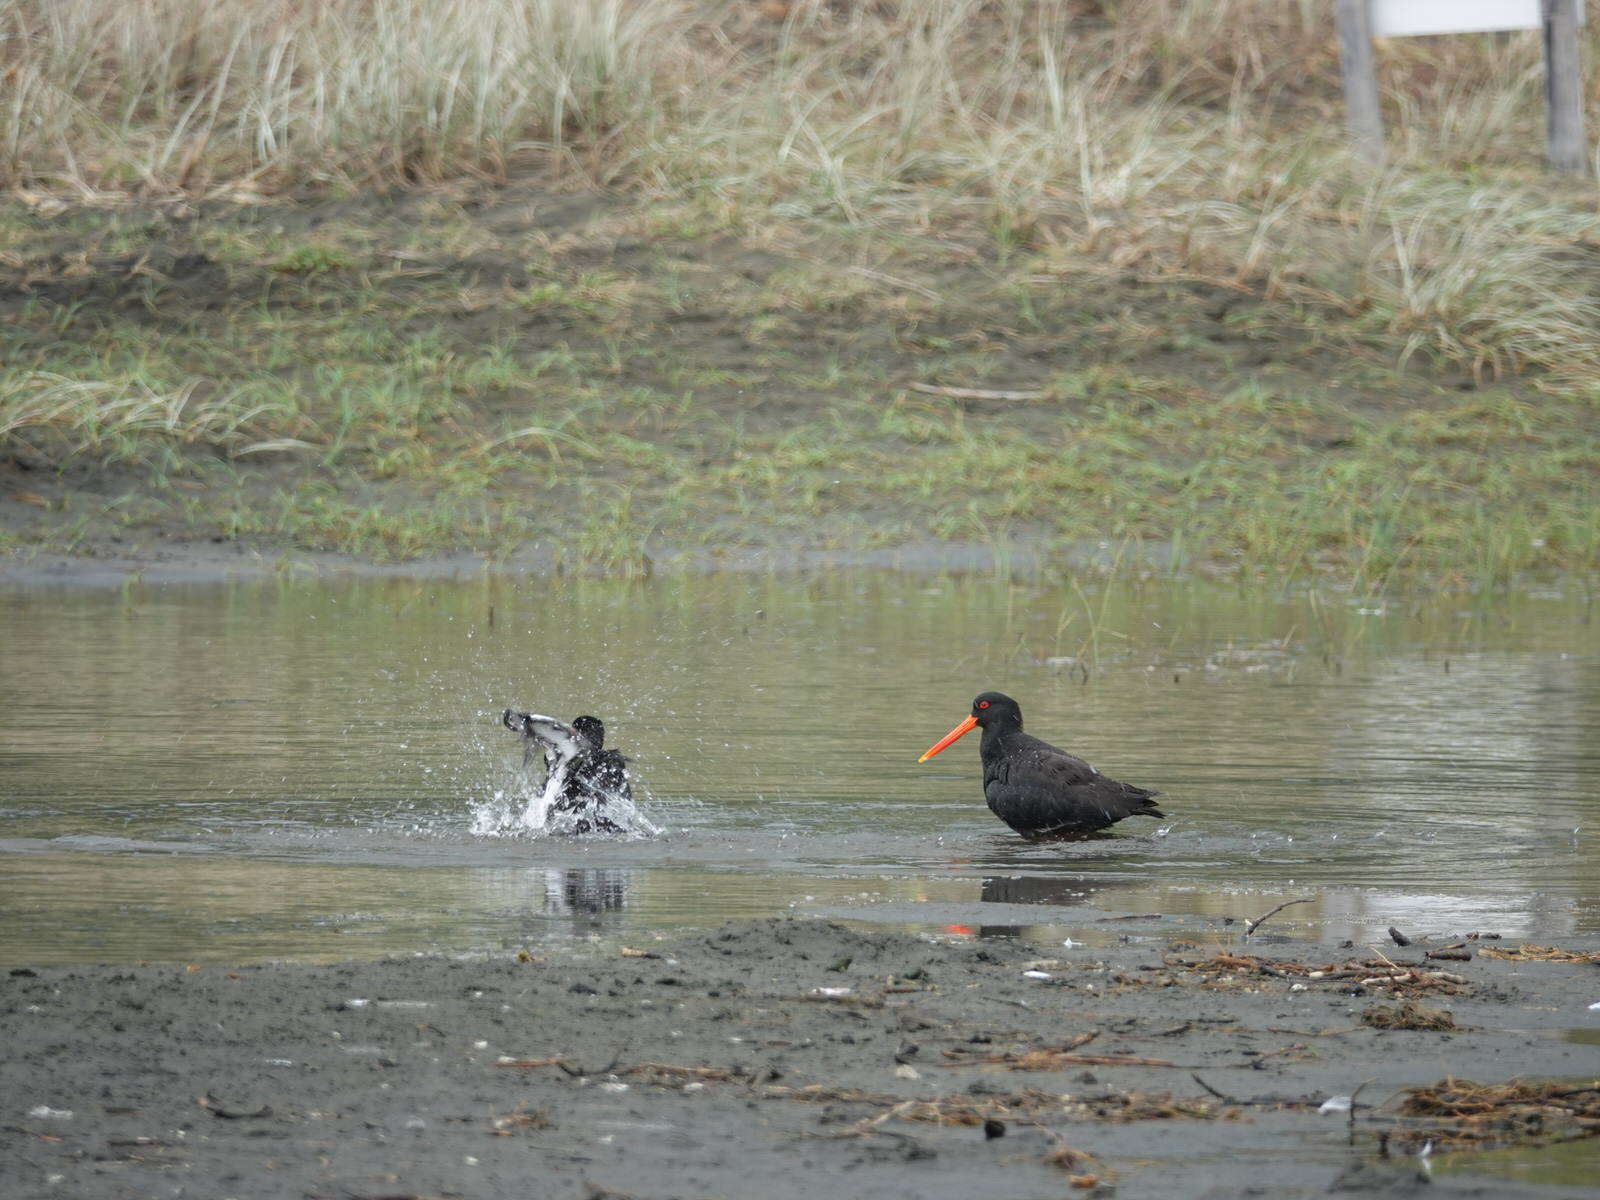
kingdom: Animalia
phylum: Chordata
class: Aves
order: Charadriiformes
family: Haematopodidae
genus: Haematopus
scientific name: Haematopus unicolor
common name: Variable oystercatcher
